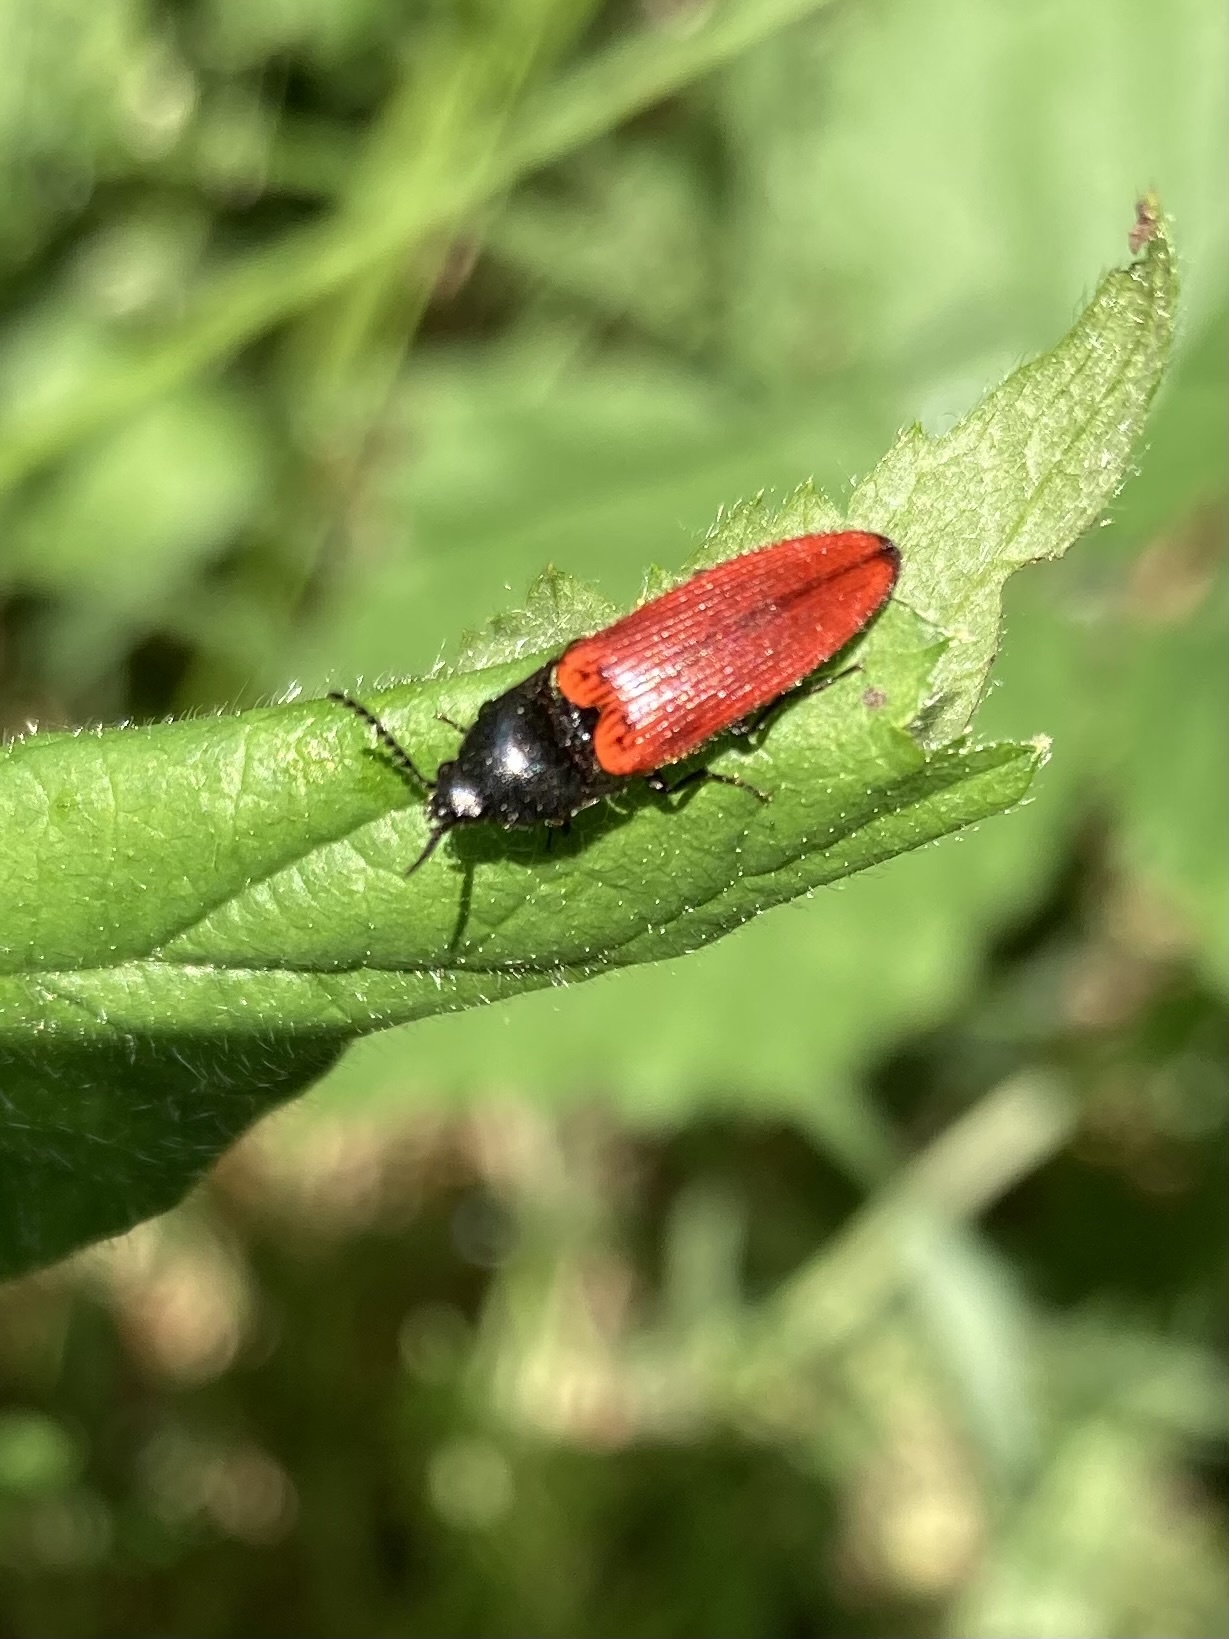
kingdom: Animalia
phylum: Arthropoda
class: Insecta
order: Coleoptera
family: Elateridae
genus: Ampedus
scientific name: Ampedus sanguineus
